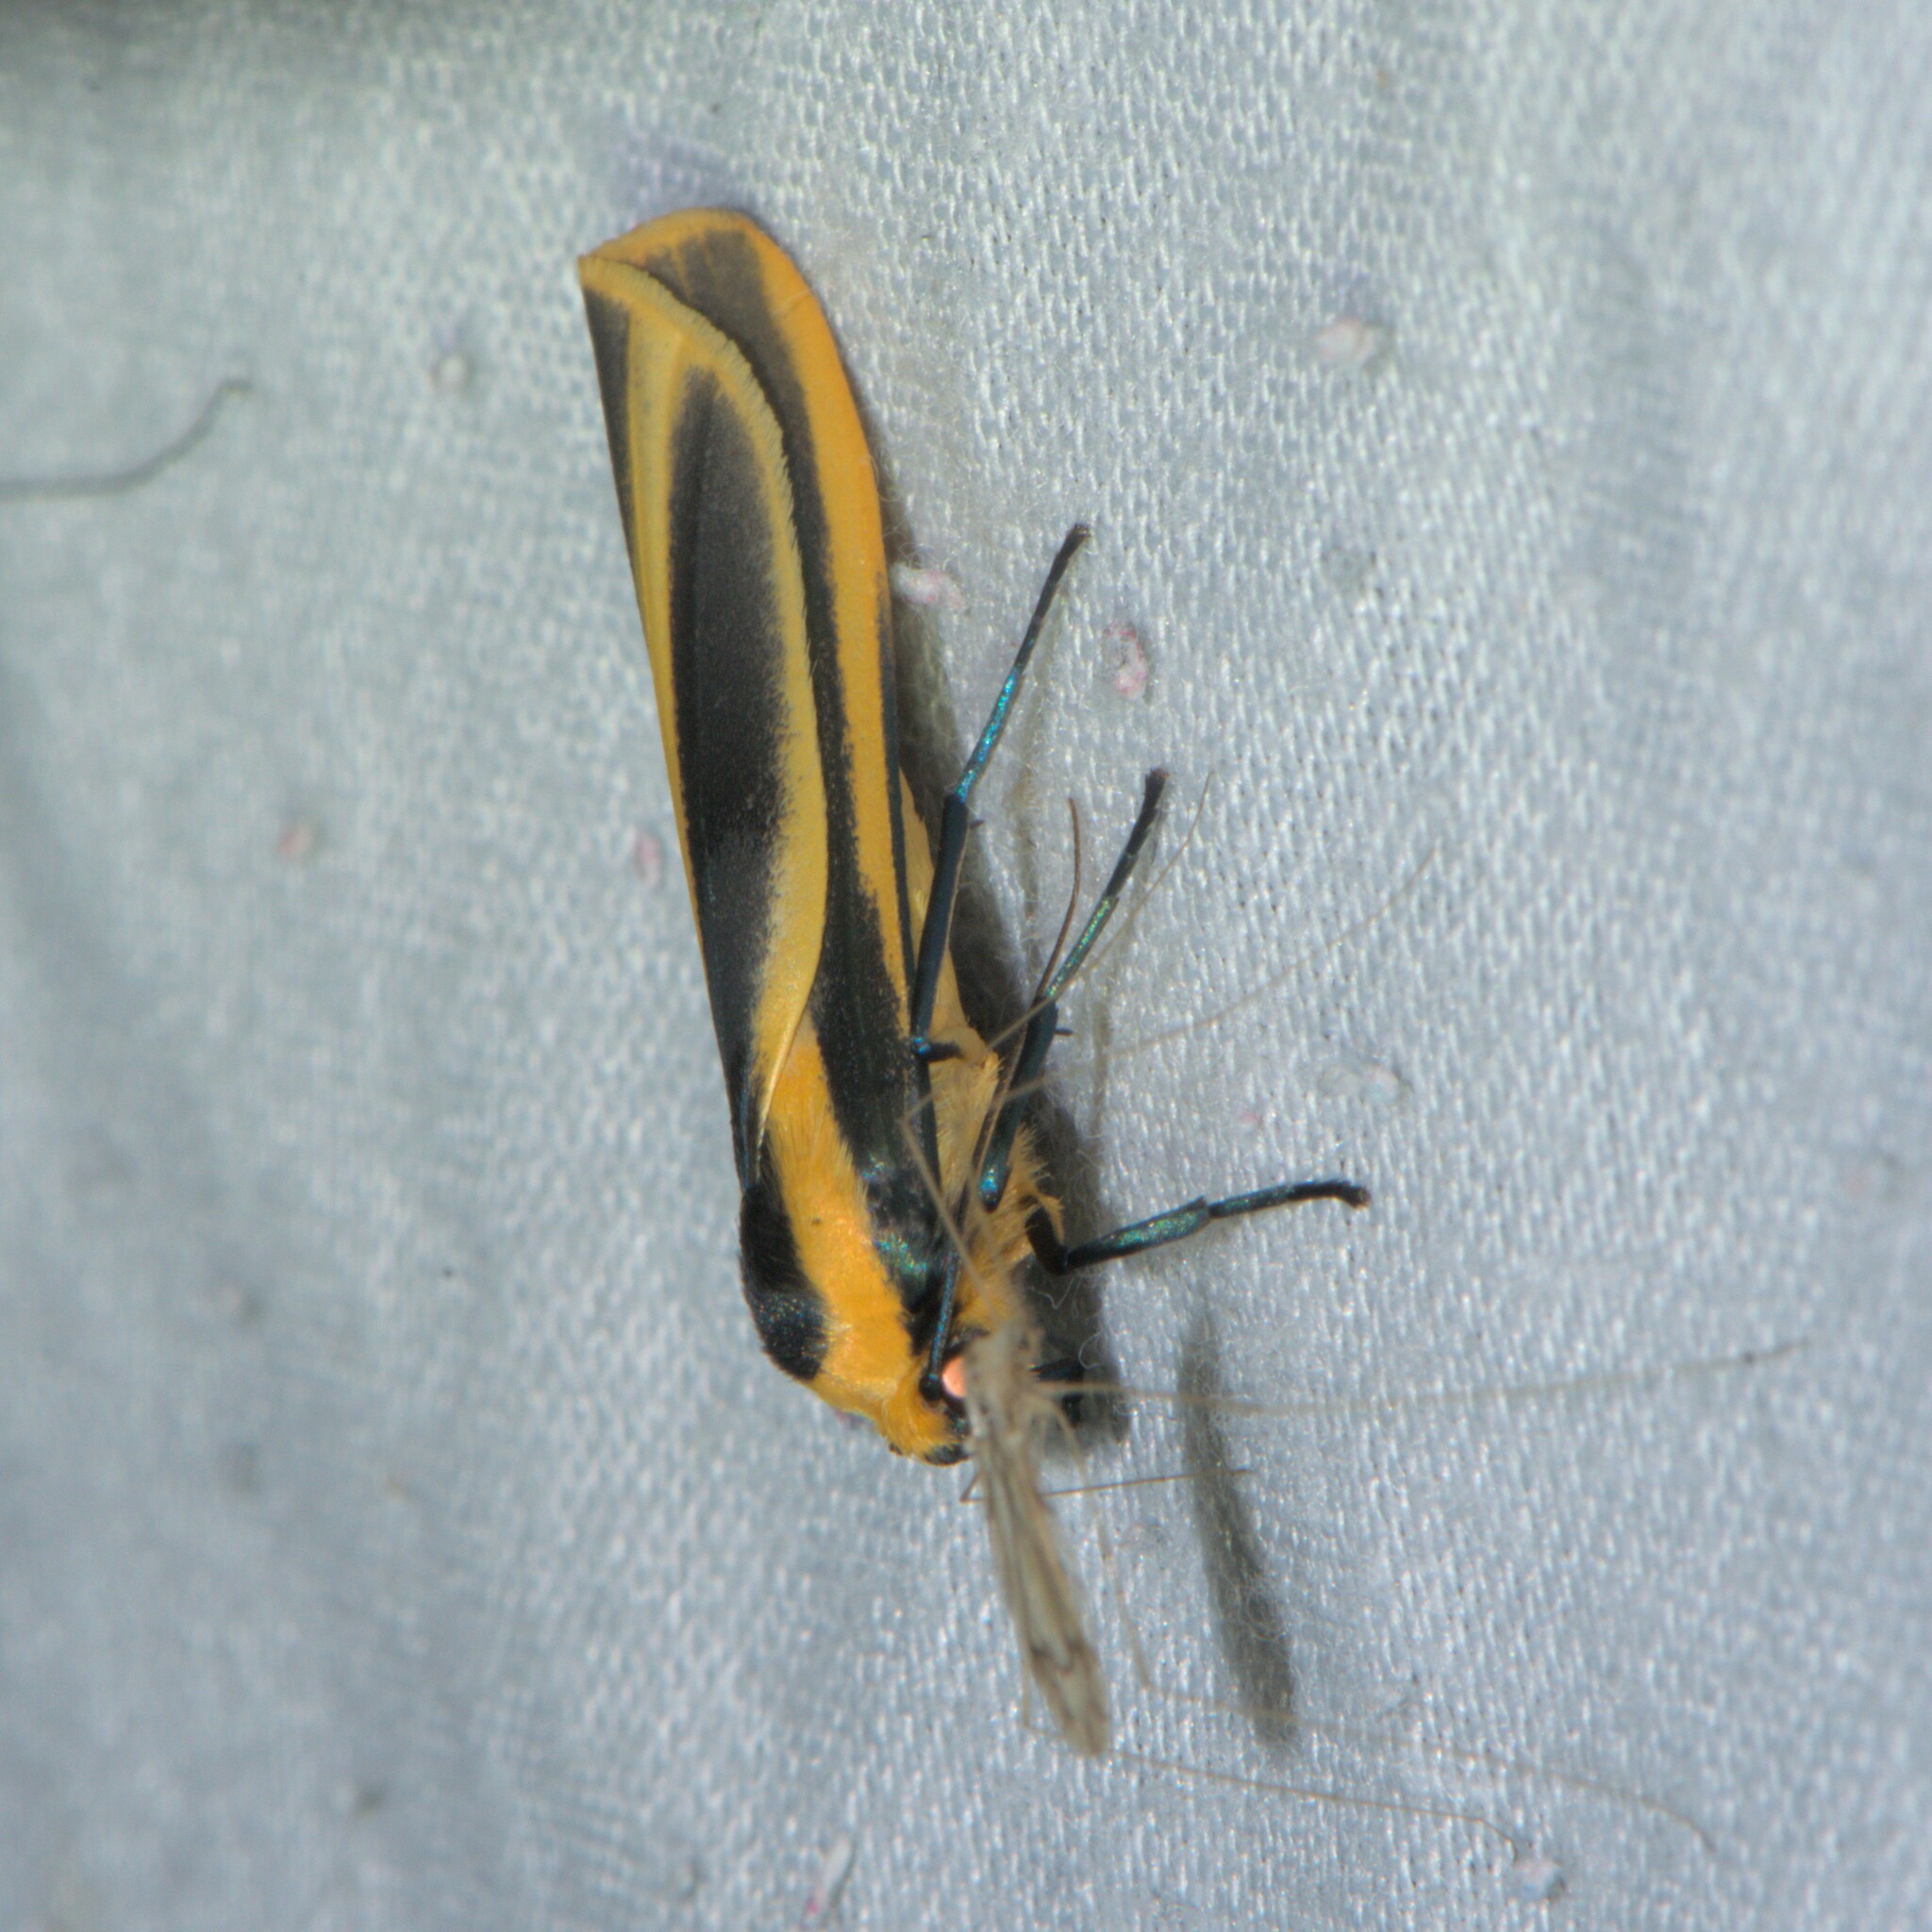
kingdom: Animalia
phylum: Arthropoda
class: Insecta
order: Lepidoptera
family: Erebidae
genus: Chrysorabdia
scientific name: Chrysorabdia bivitta
